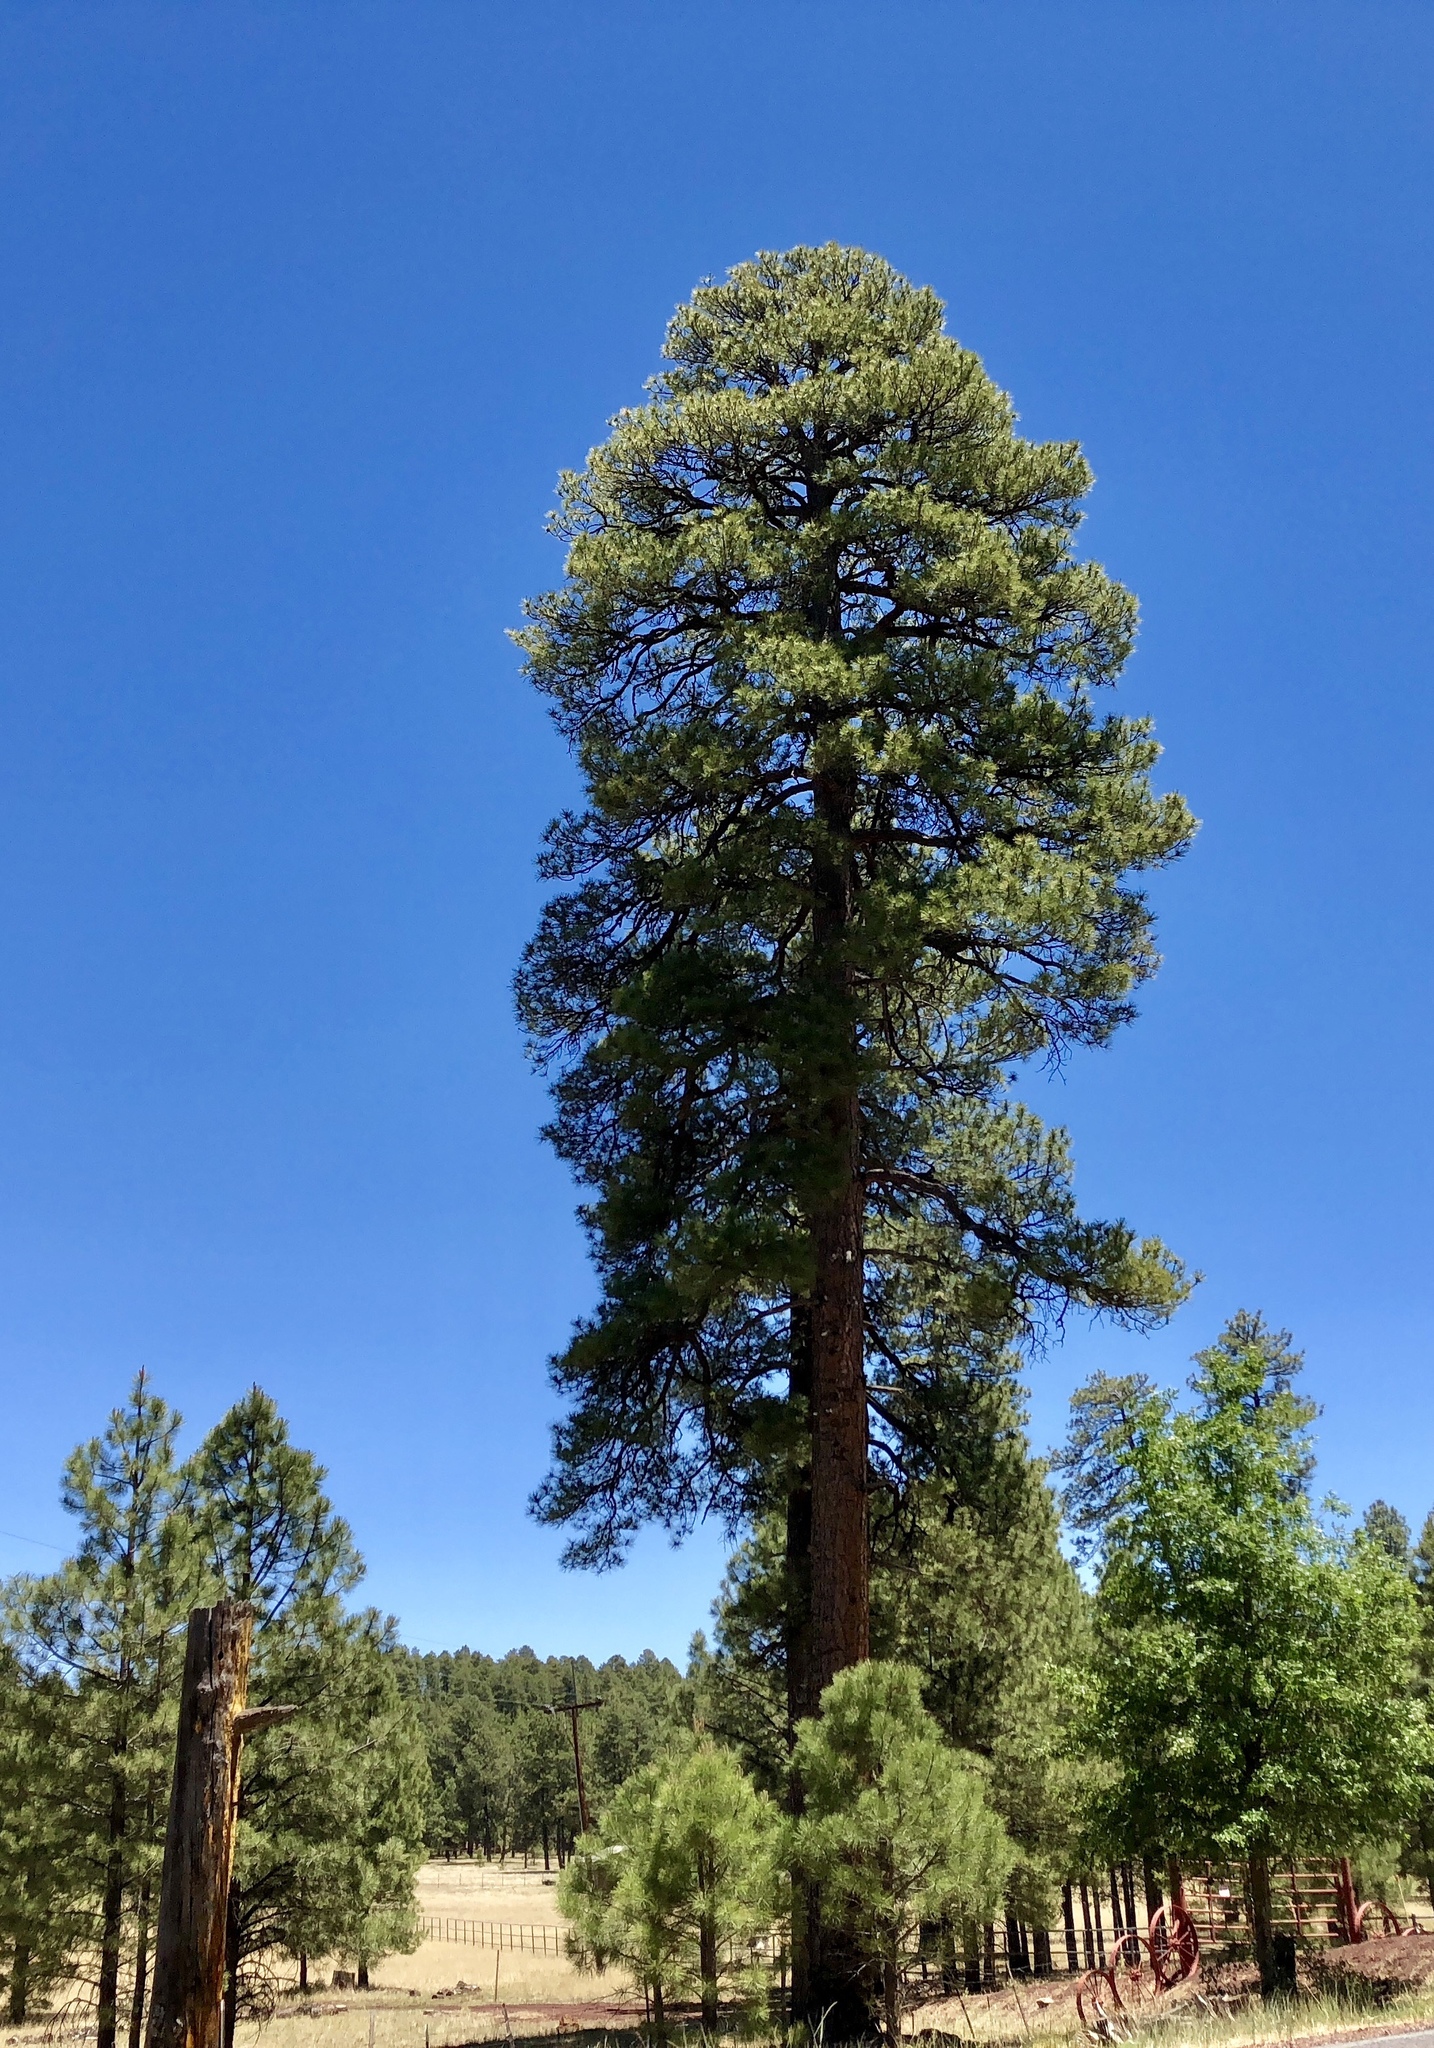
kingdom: Plantae
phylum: Tracheophyta
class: Pinopsida
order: Pinales
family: Pinaceae
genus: Pinus
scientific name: Pinus ponderosa
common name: Western yellow-pine
